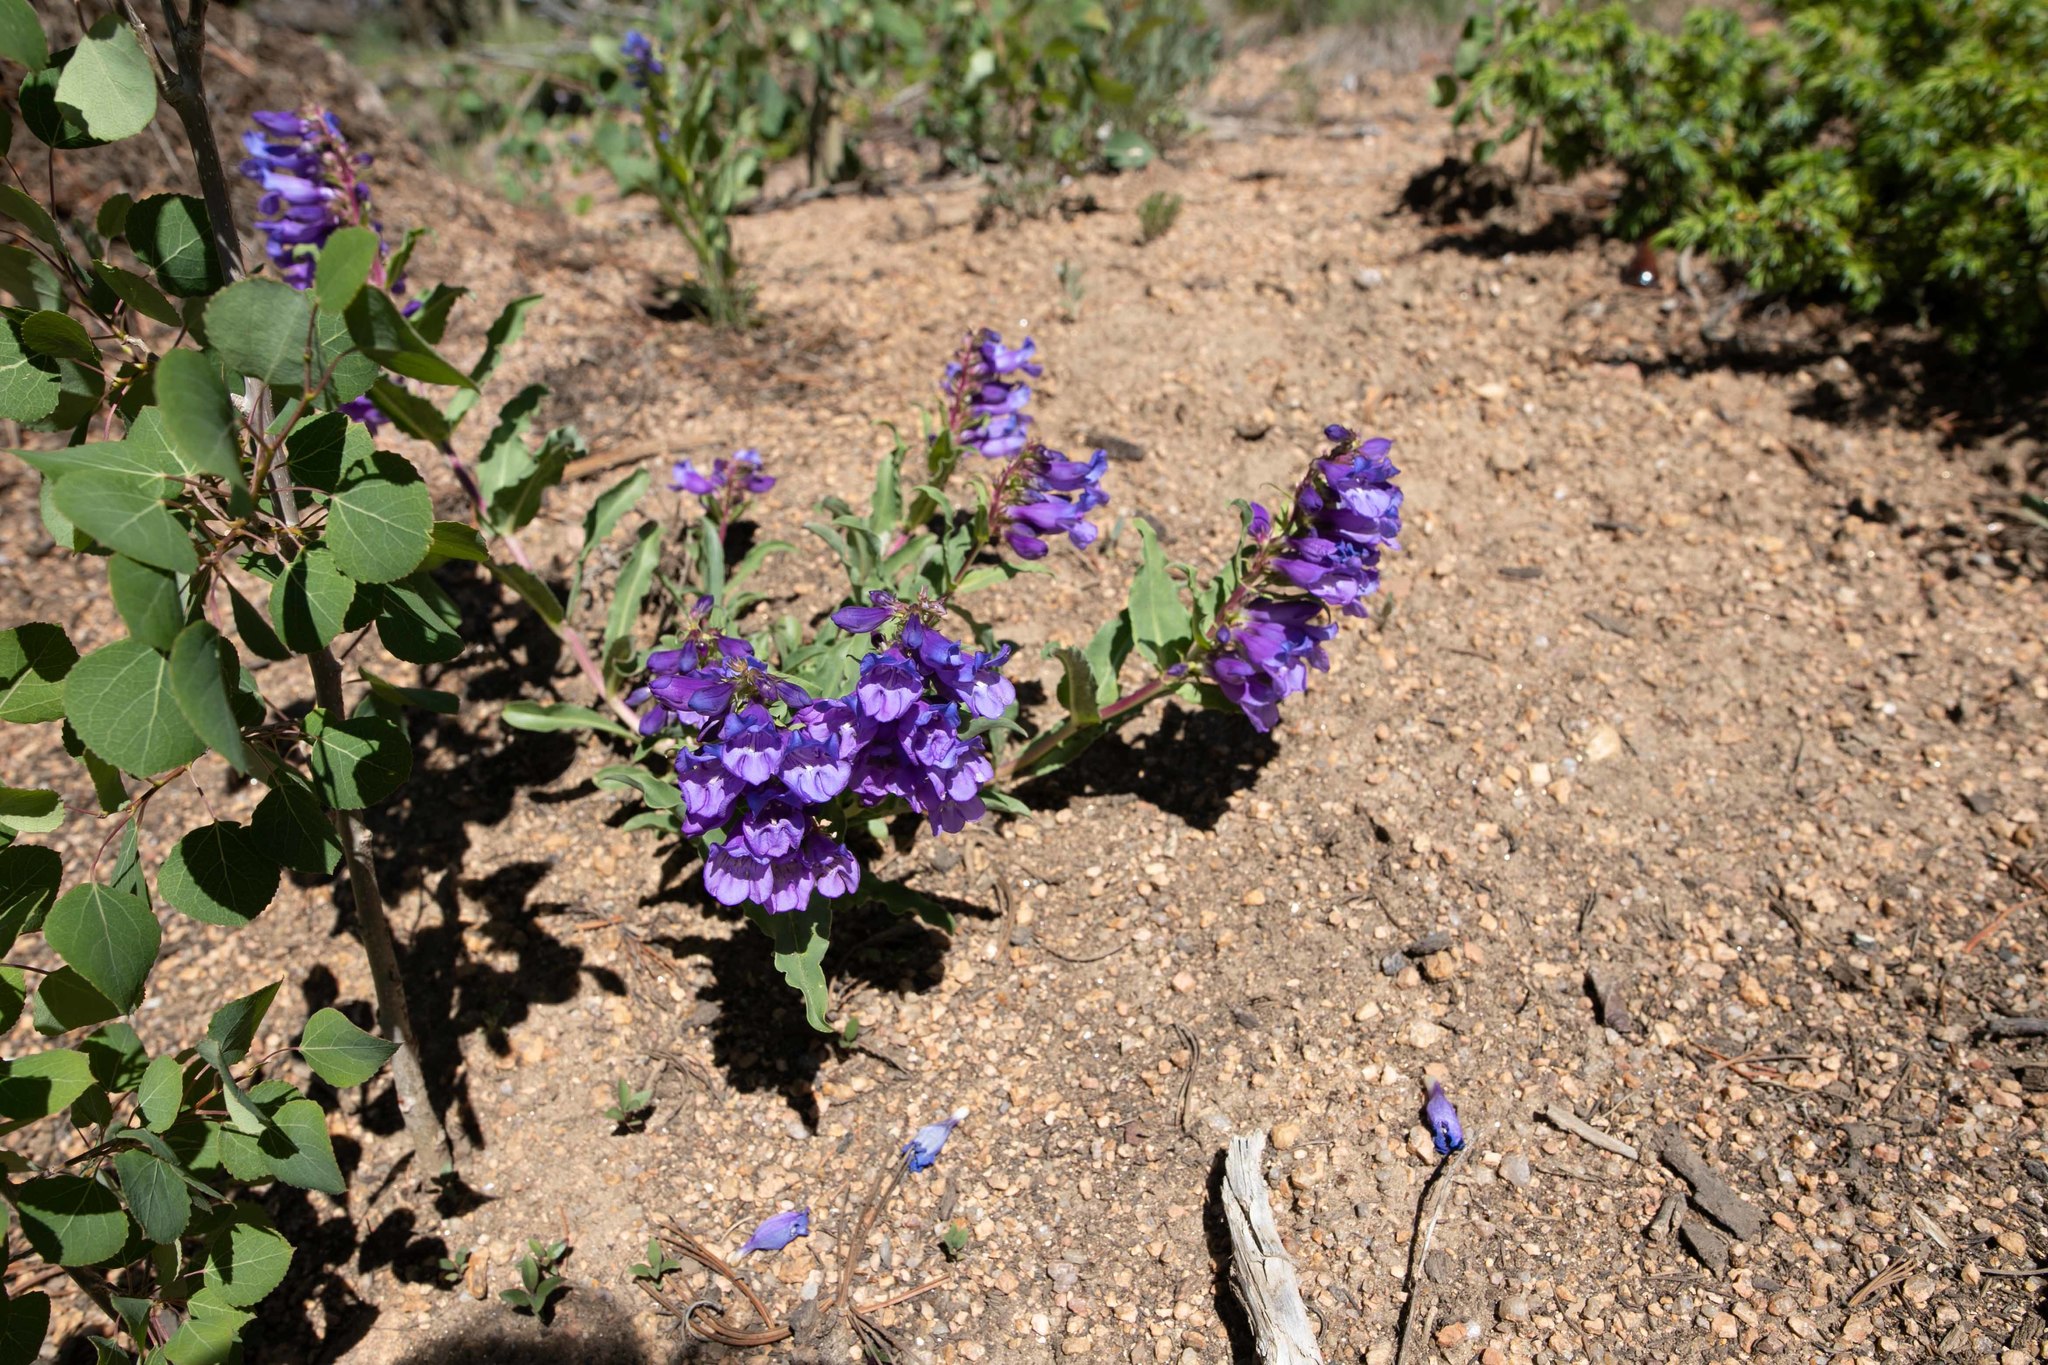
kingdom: Plantae
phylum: Tracheophyta
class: Magnoliopsida
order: Lamiales
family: Plantaginaceae
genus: Penstemon
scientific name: Penstemon glaber
